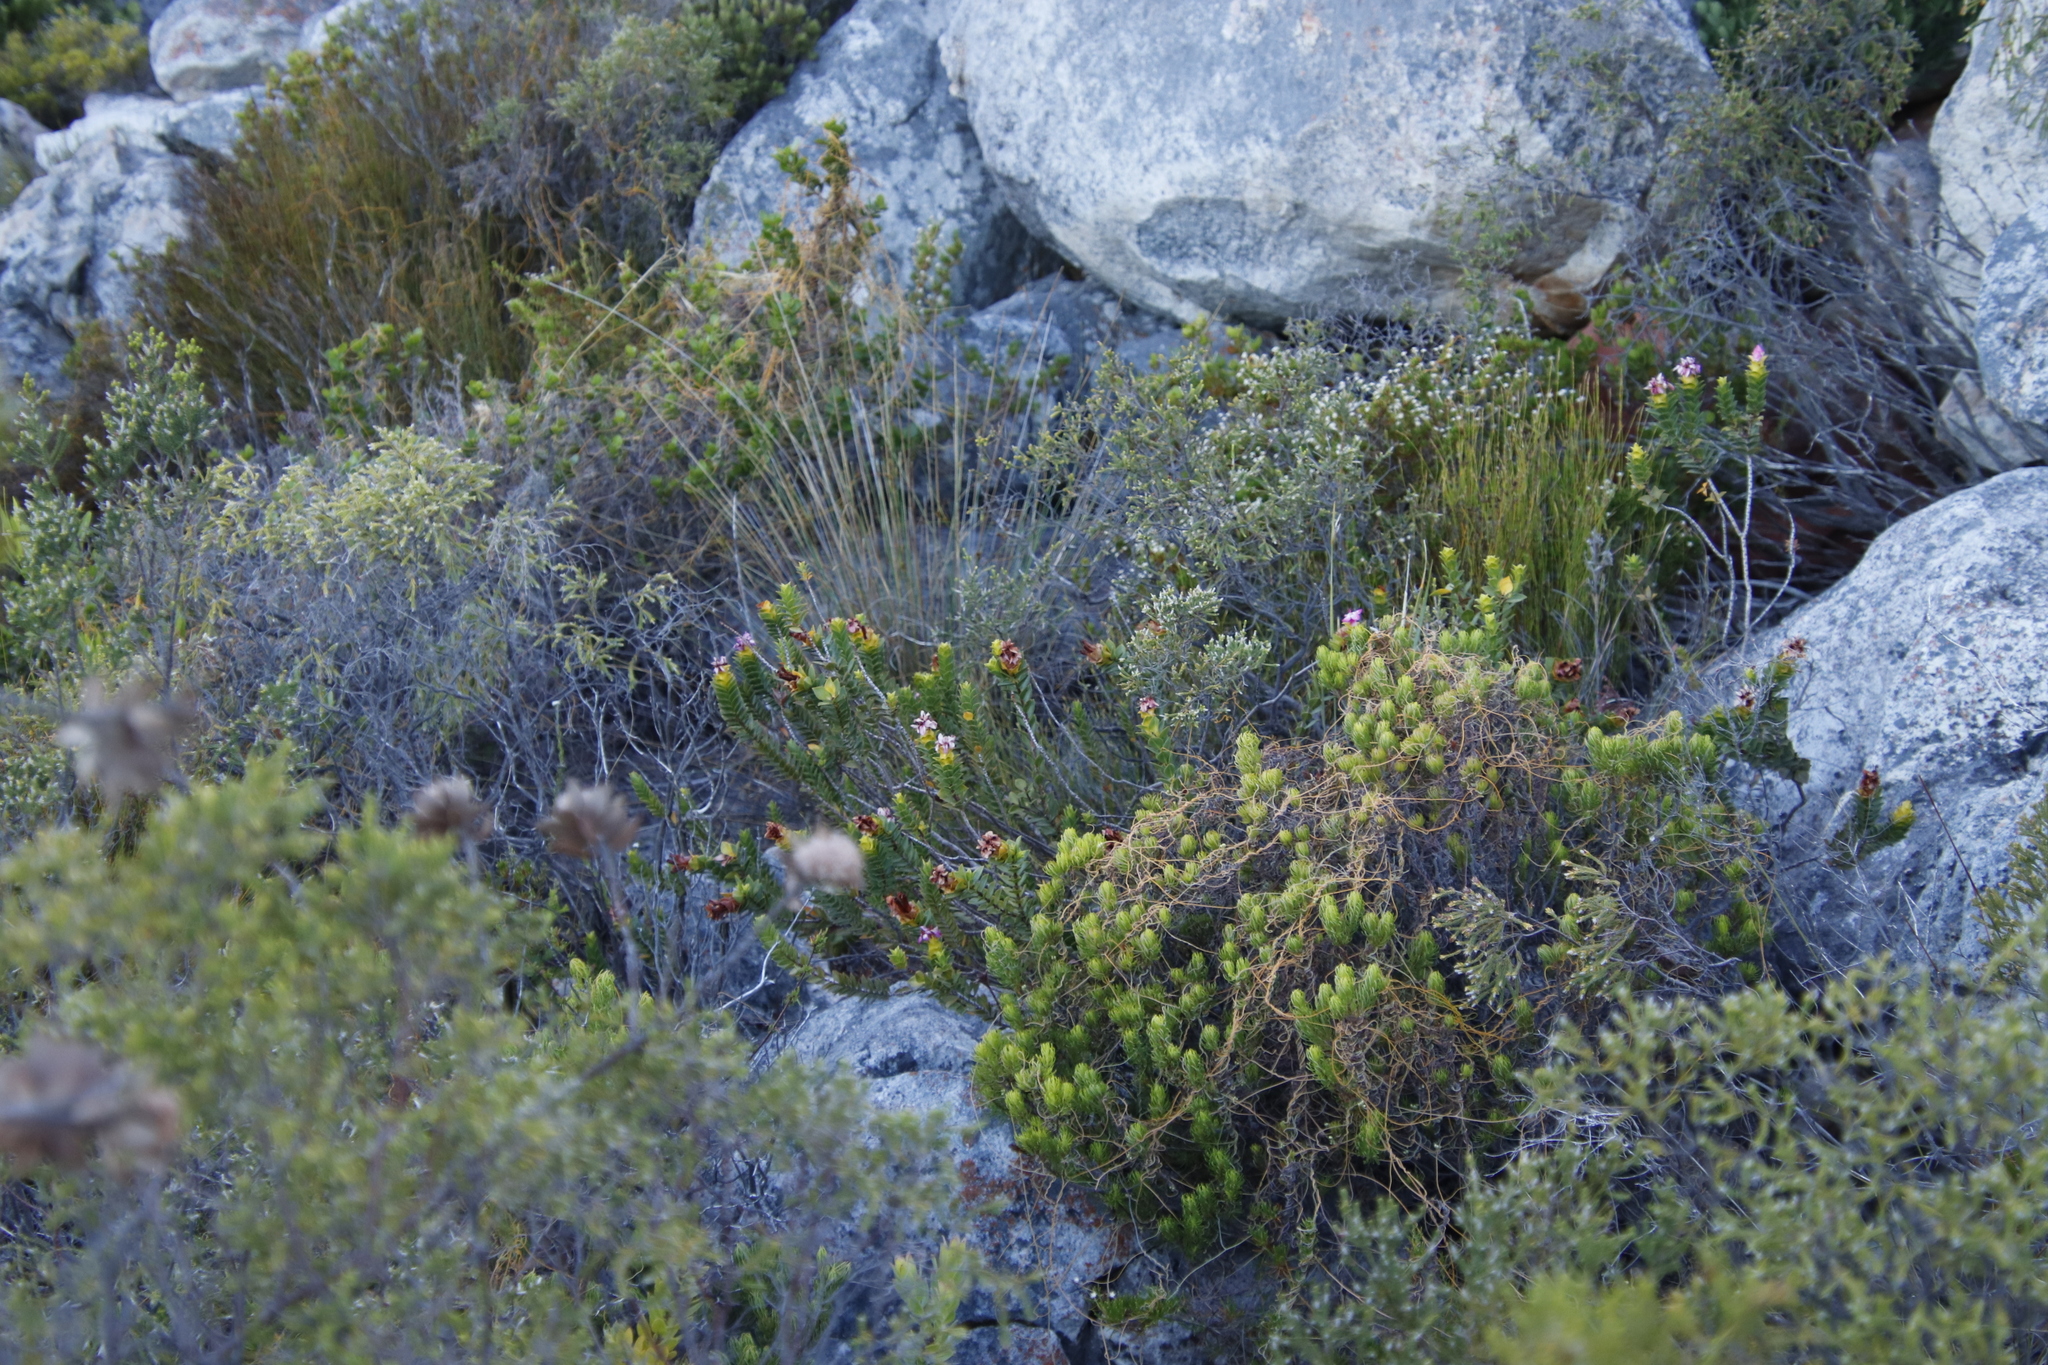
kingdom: Plantae
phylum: Tracheophyta
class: Magnoliopsida
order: Myrtales
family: Penaeaceae
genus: Saltera
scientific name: Saltera sarcocolla
